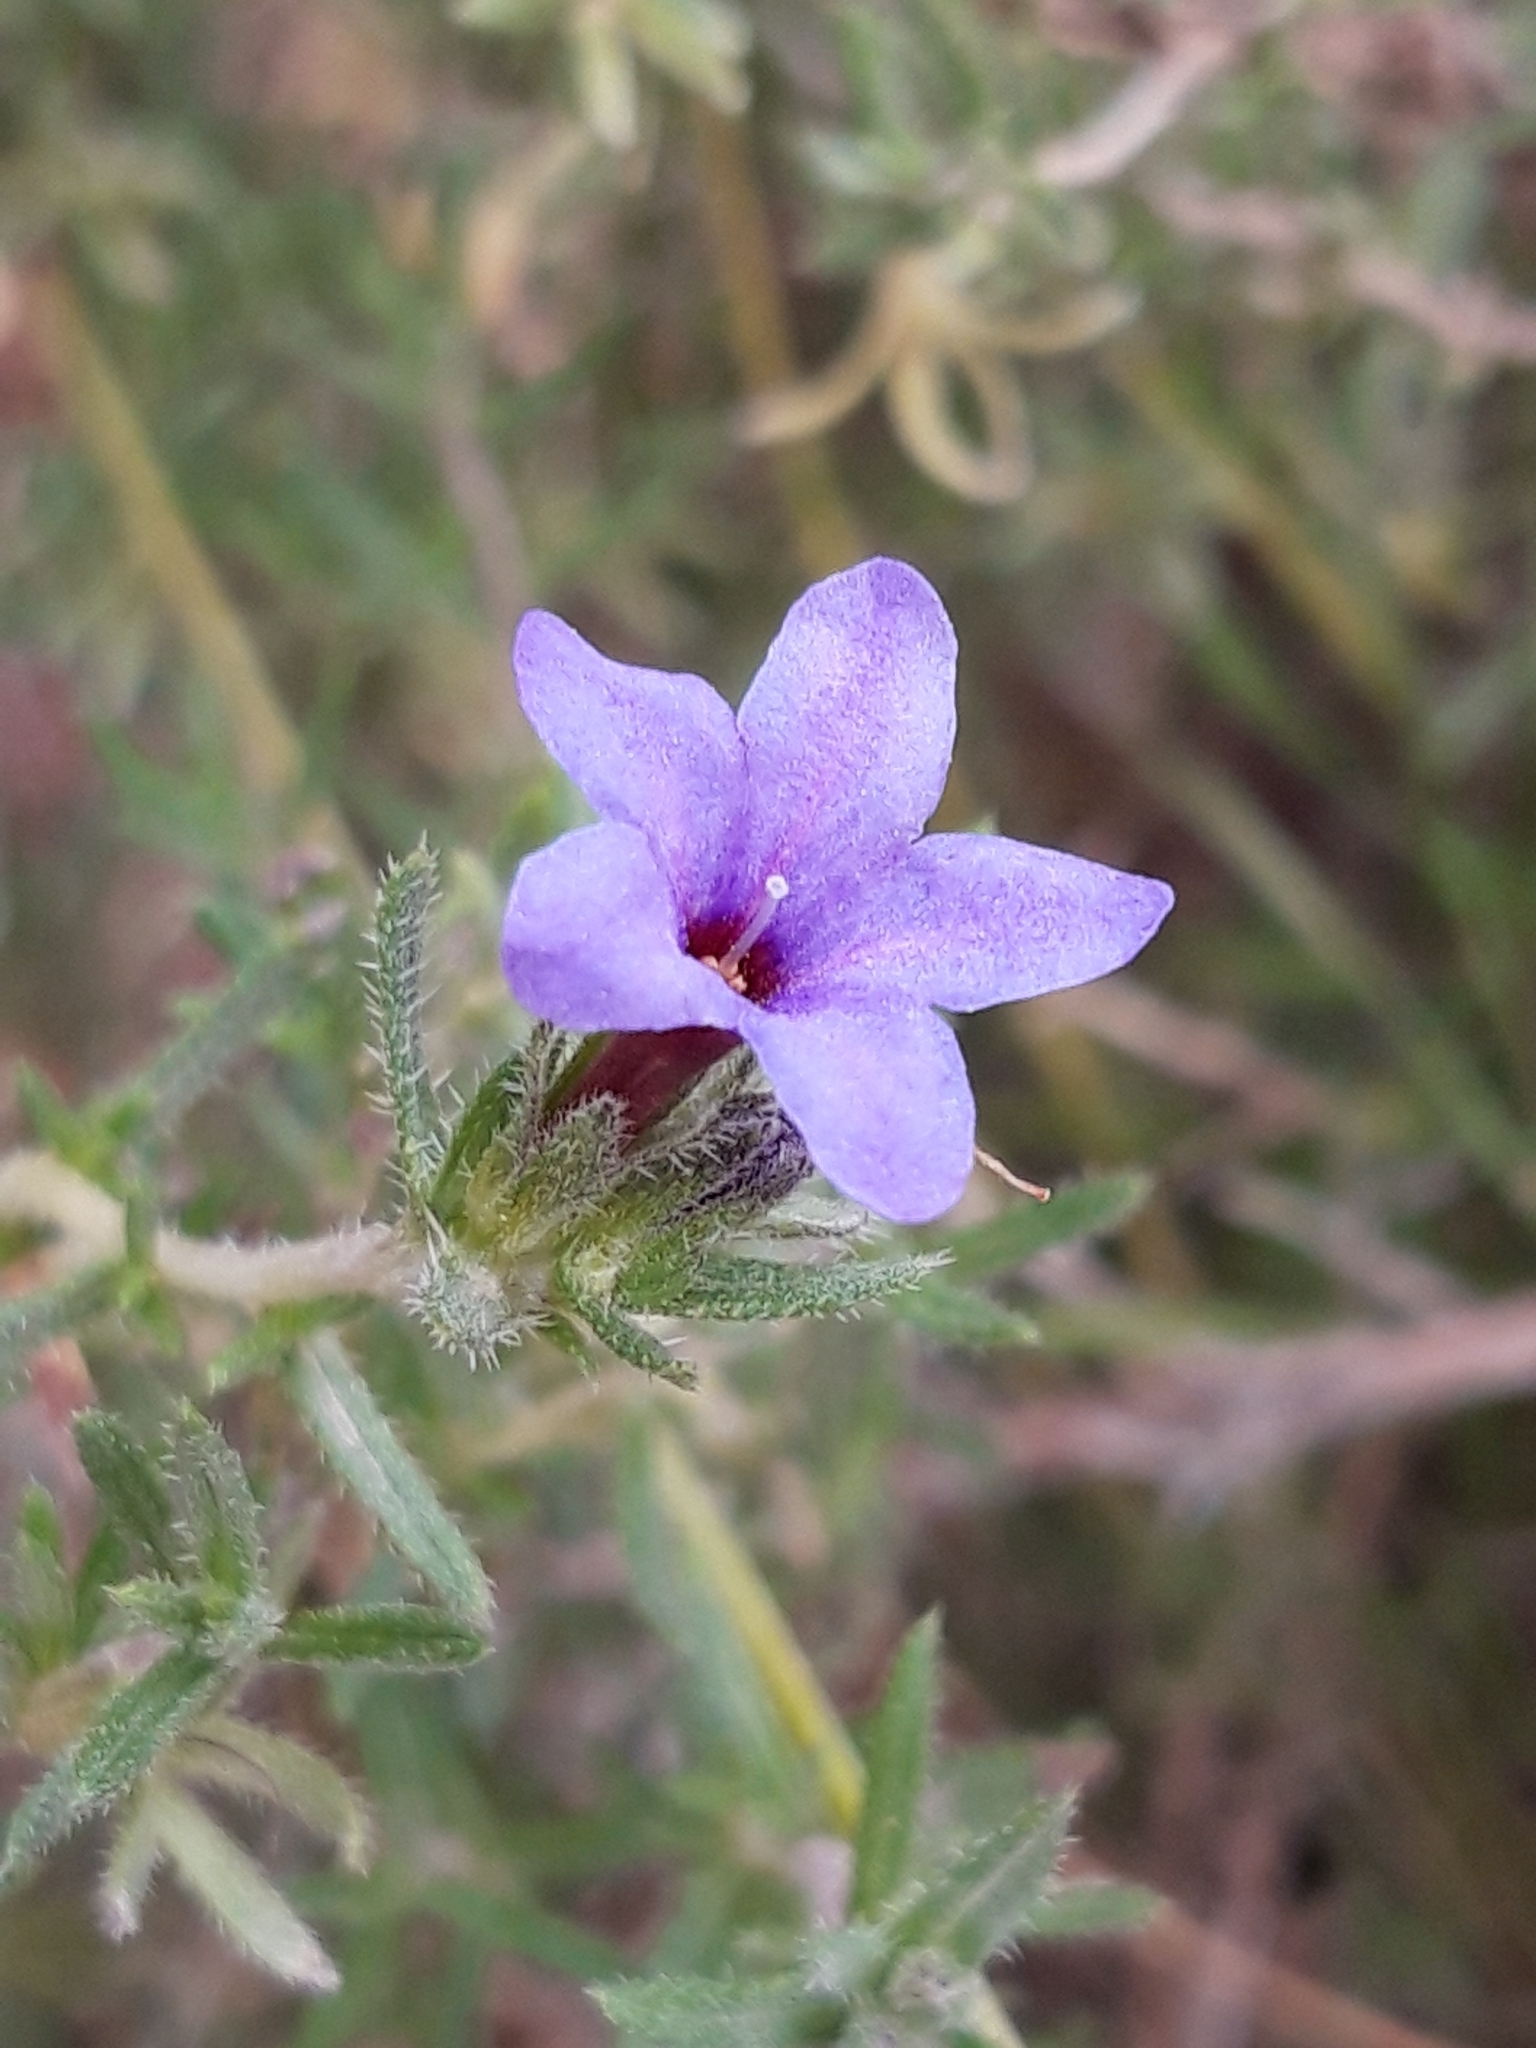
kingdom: Plantae
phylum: Tracheophyta
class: Magnoliopsida
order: Boraginales
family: Boraginaceae
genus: Lithodora
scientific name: Lithodora fruticosa
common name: Shrubby gromwell
